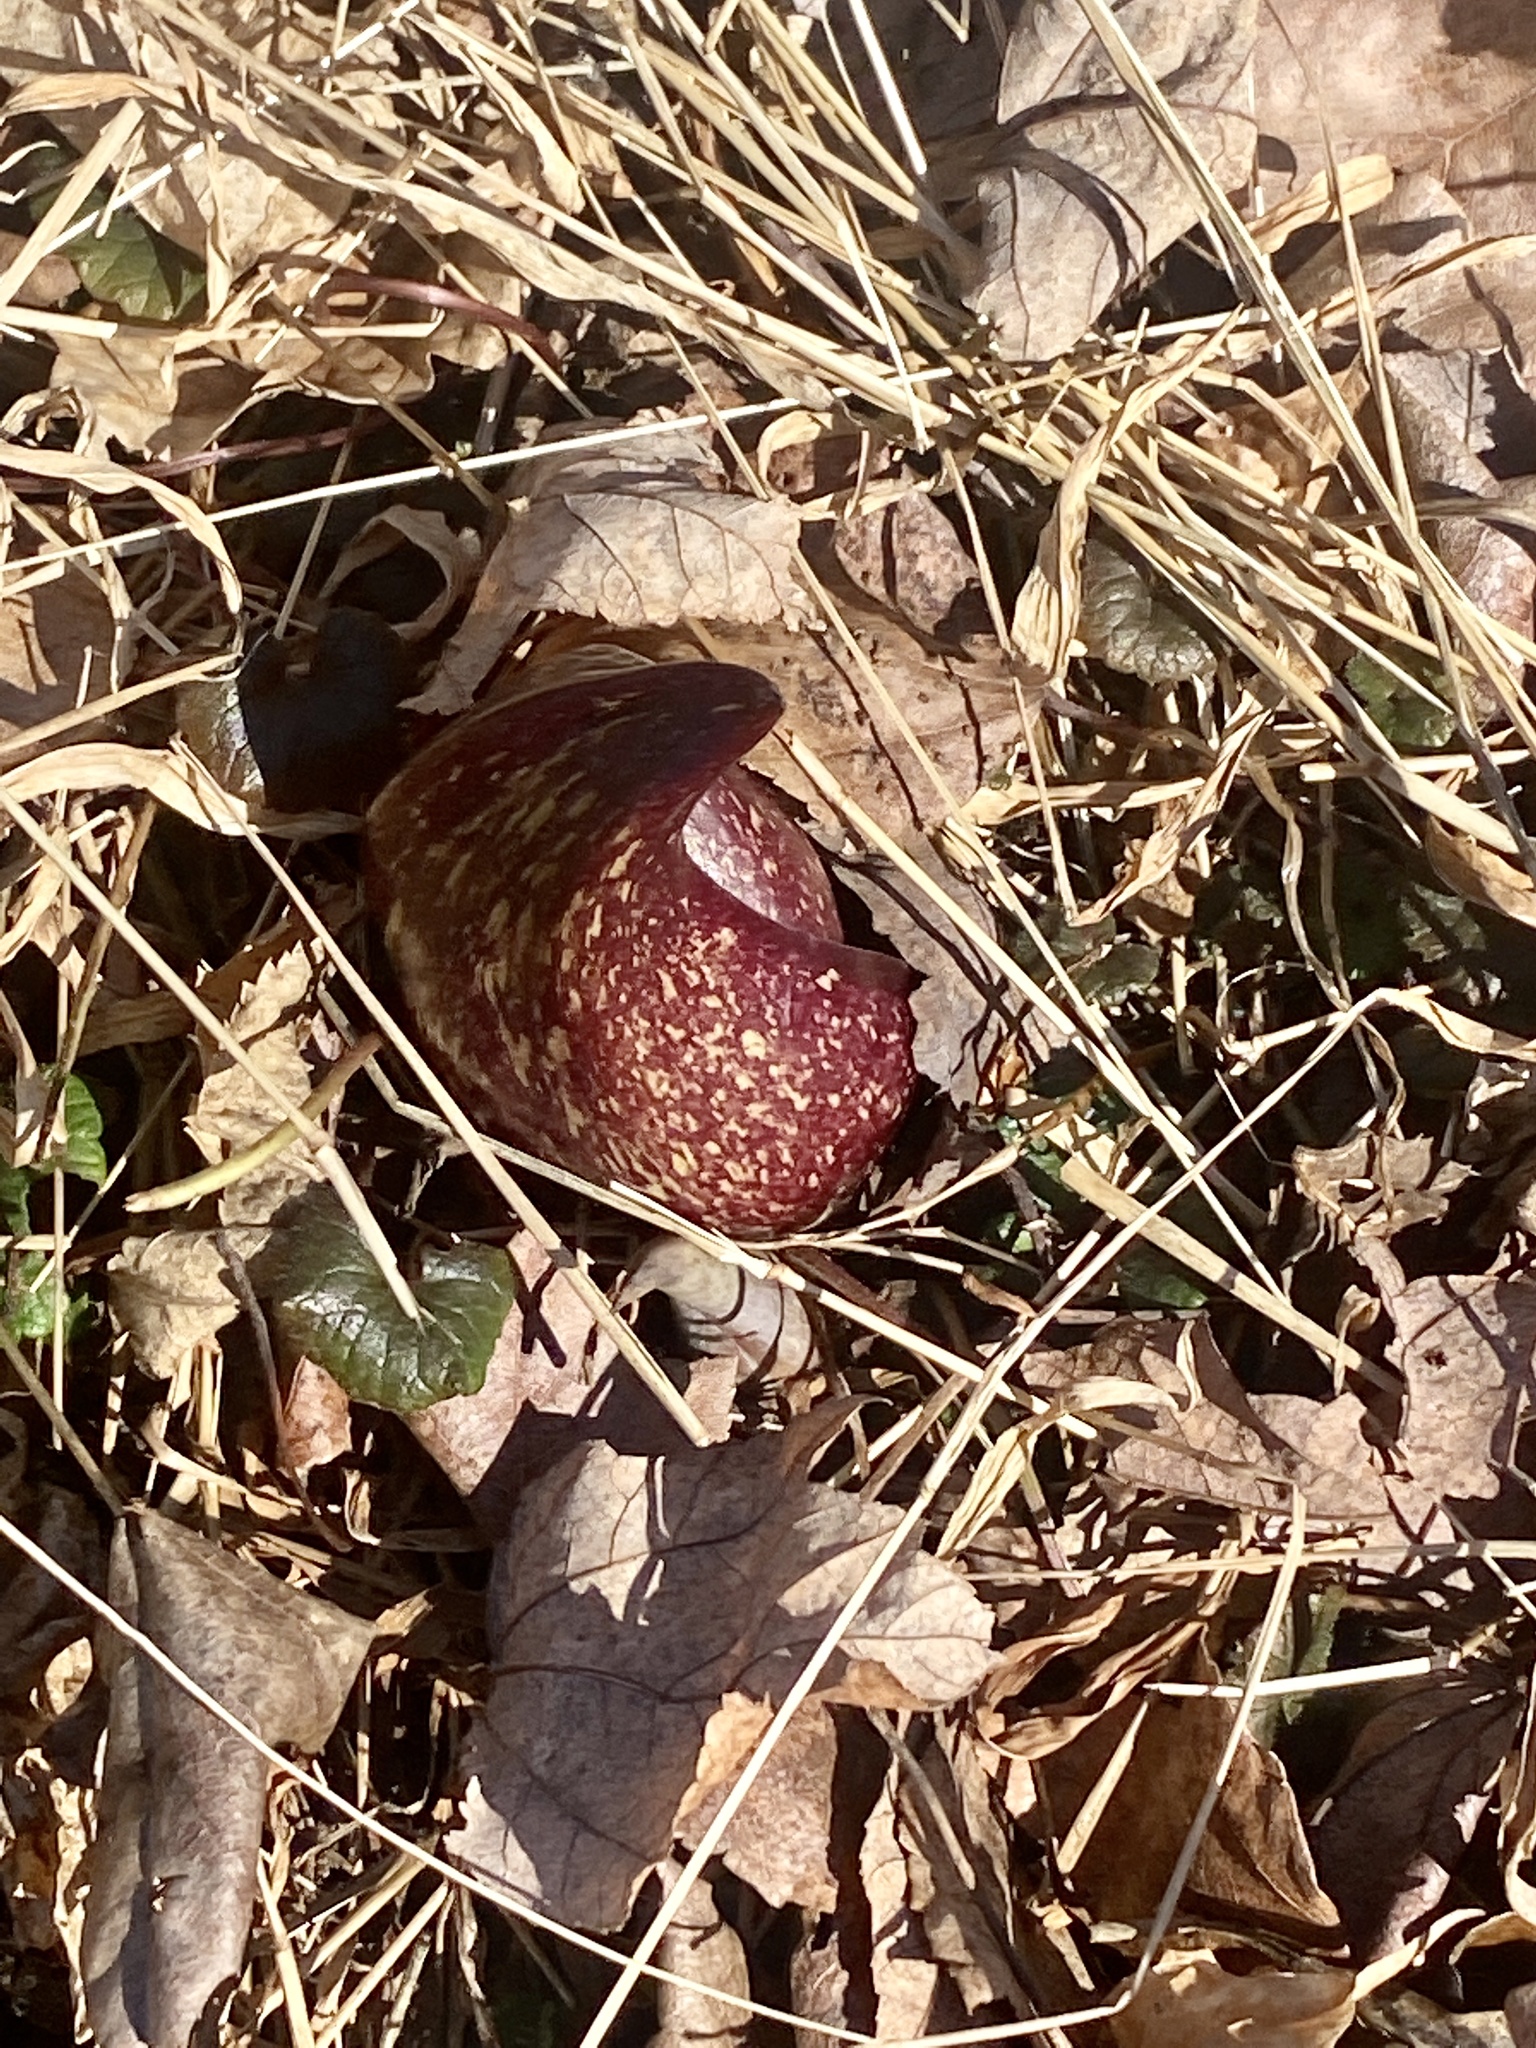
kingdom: Plantae
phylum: Tracheophyta
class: Liliopsida
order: Alismatales
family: Araceae
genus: Symplocarpus
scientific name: Symplocarpus foetidus
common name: Eastern skunk cabbage
